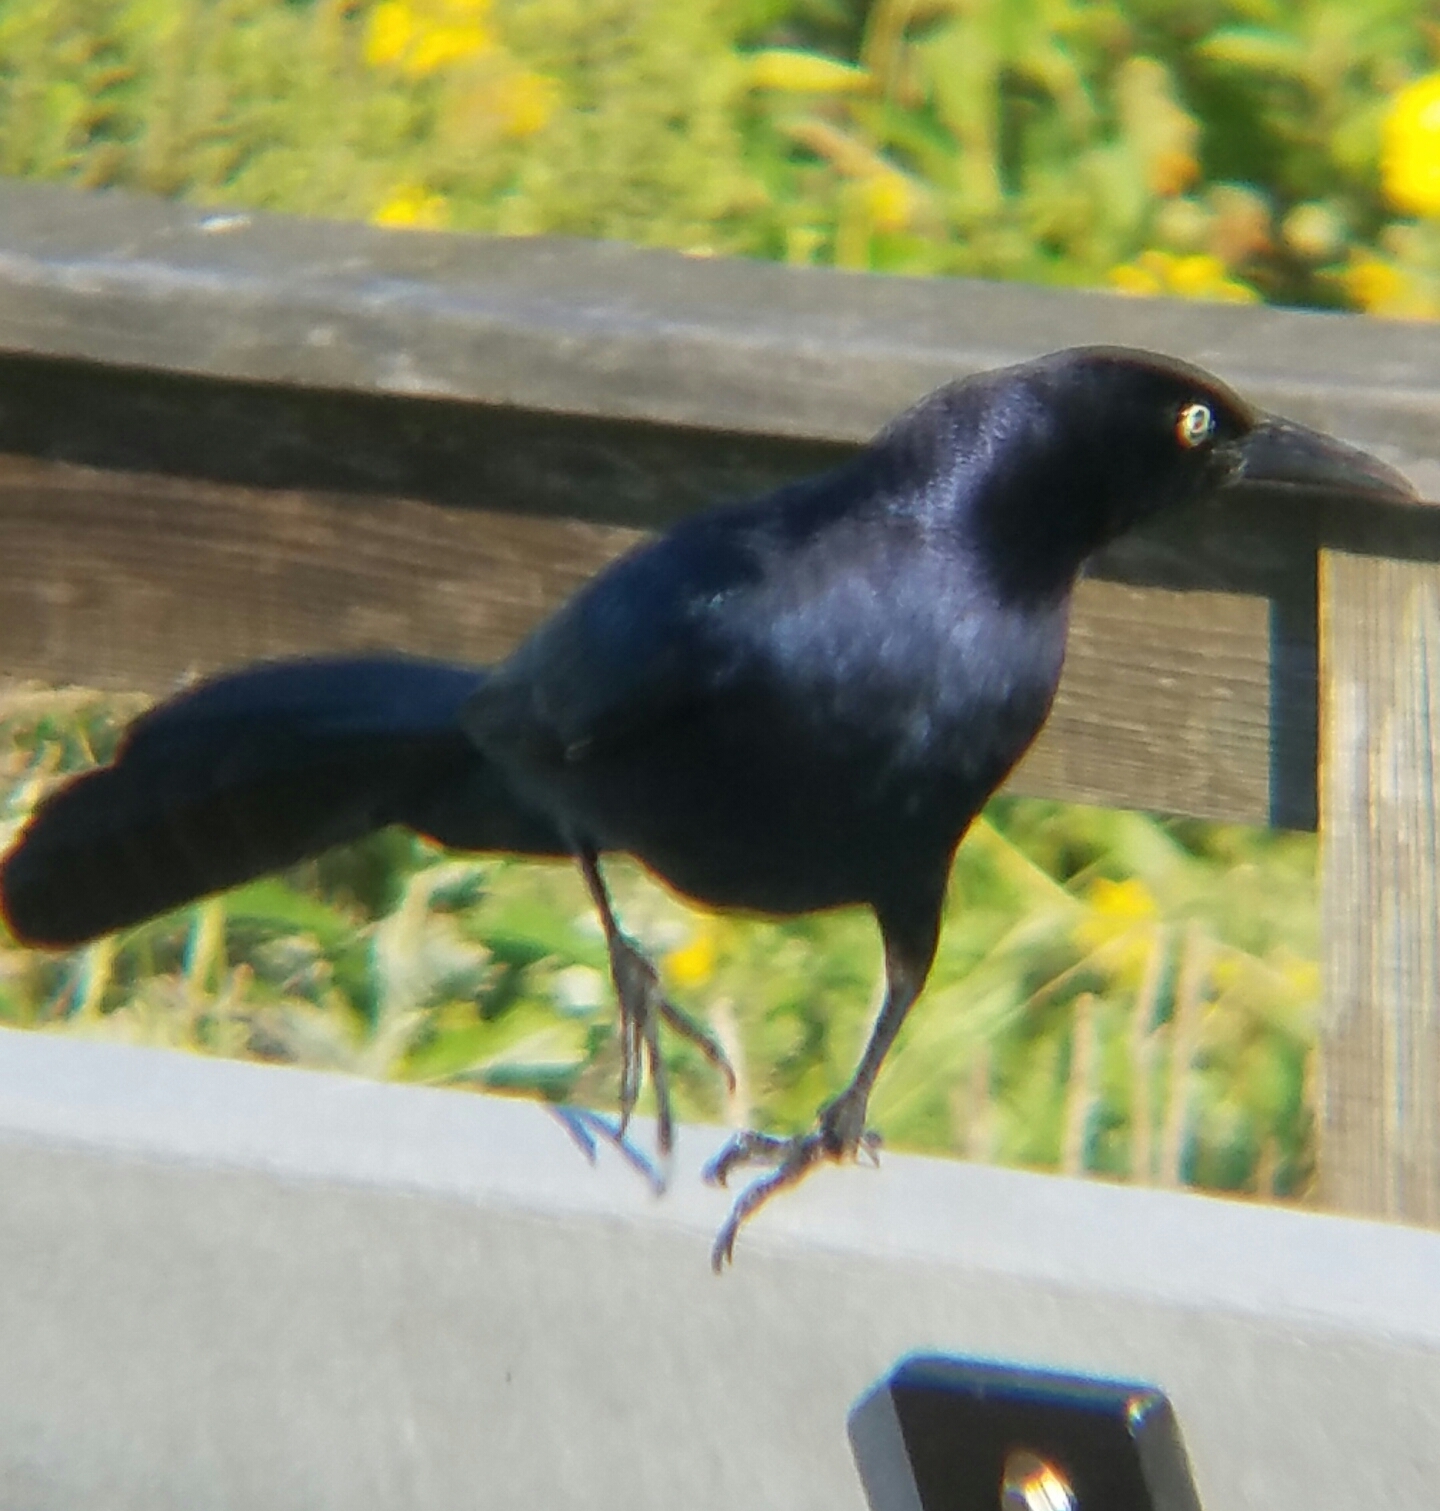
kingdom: Animalia
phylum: Chordata
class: Aves
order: Passeriformes
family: Icteridae
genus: Quiscalus
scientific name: Quiscalus mexicanus
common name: Great-tailed grackle
